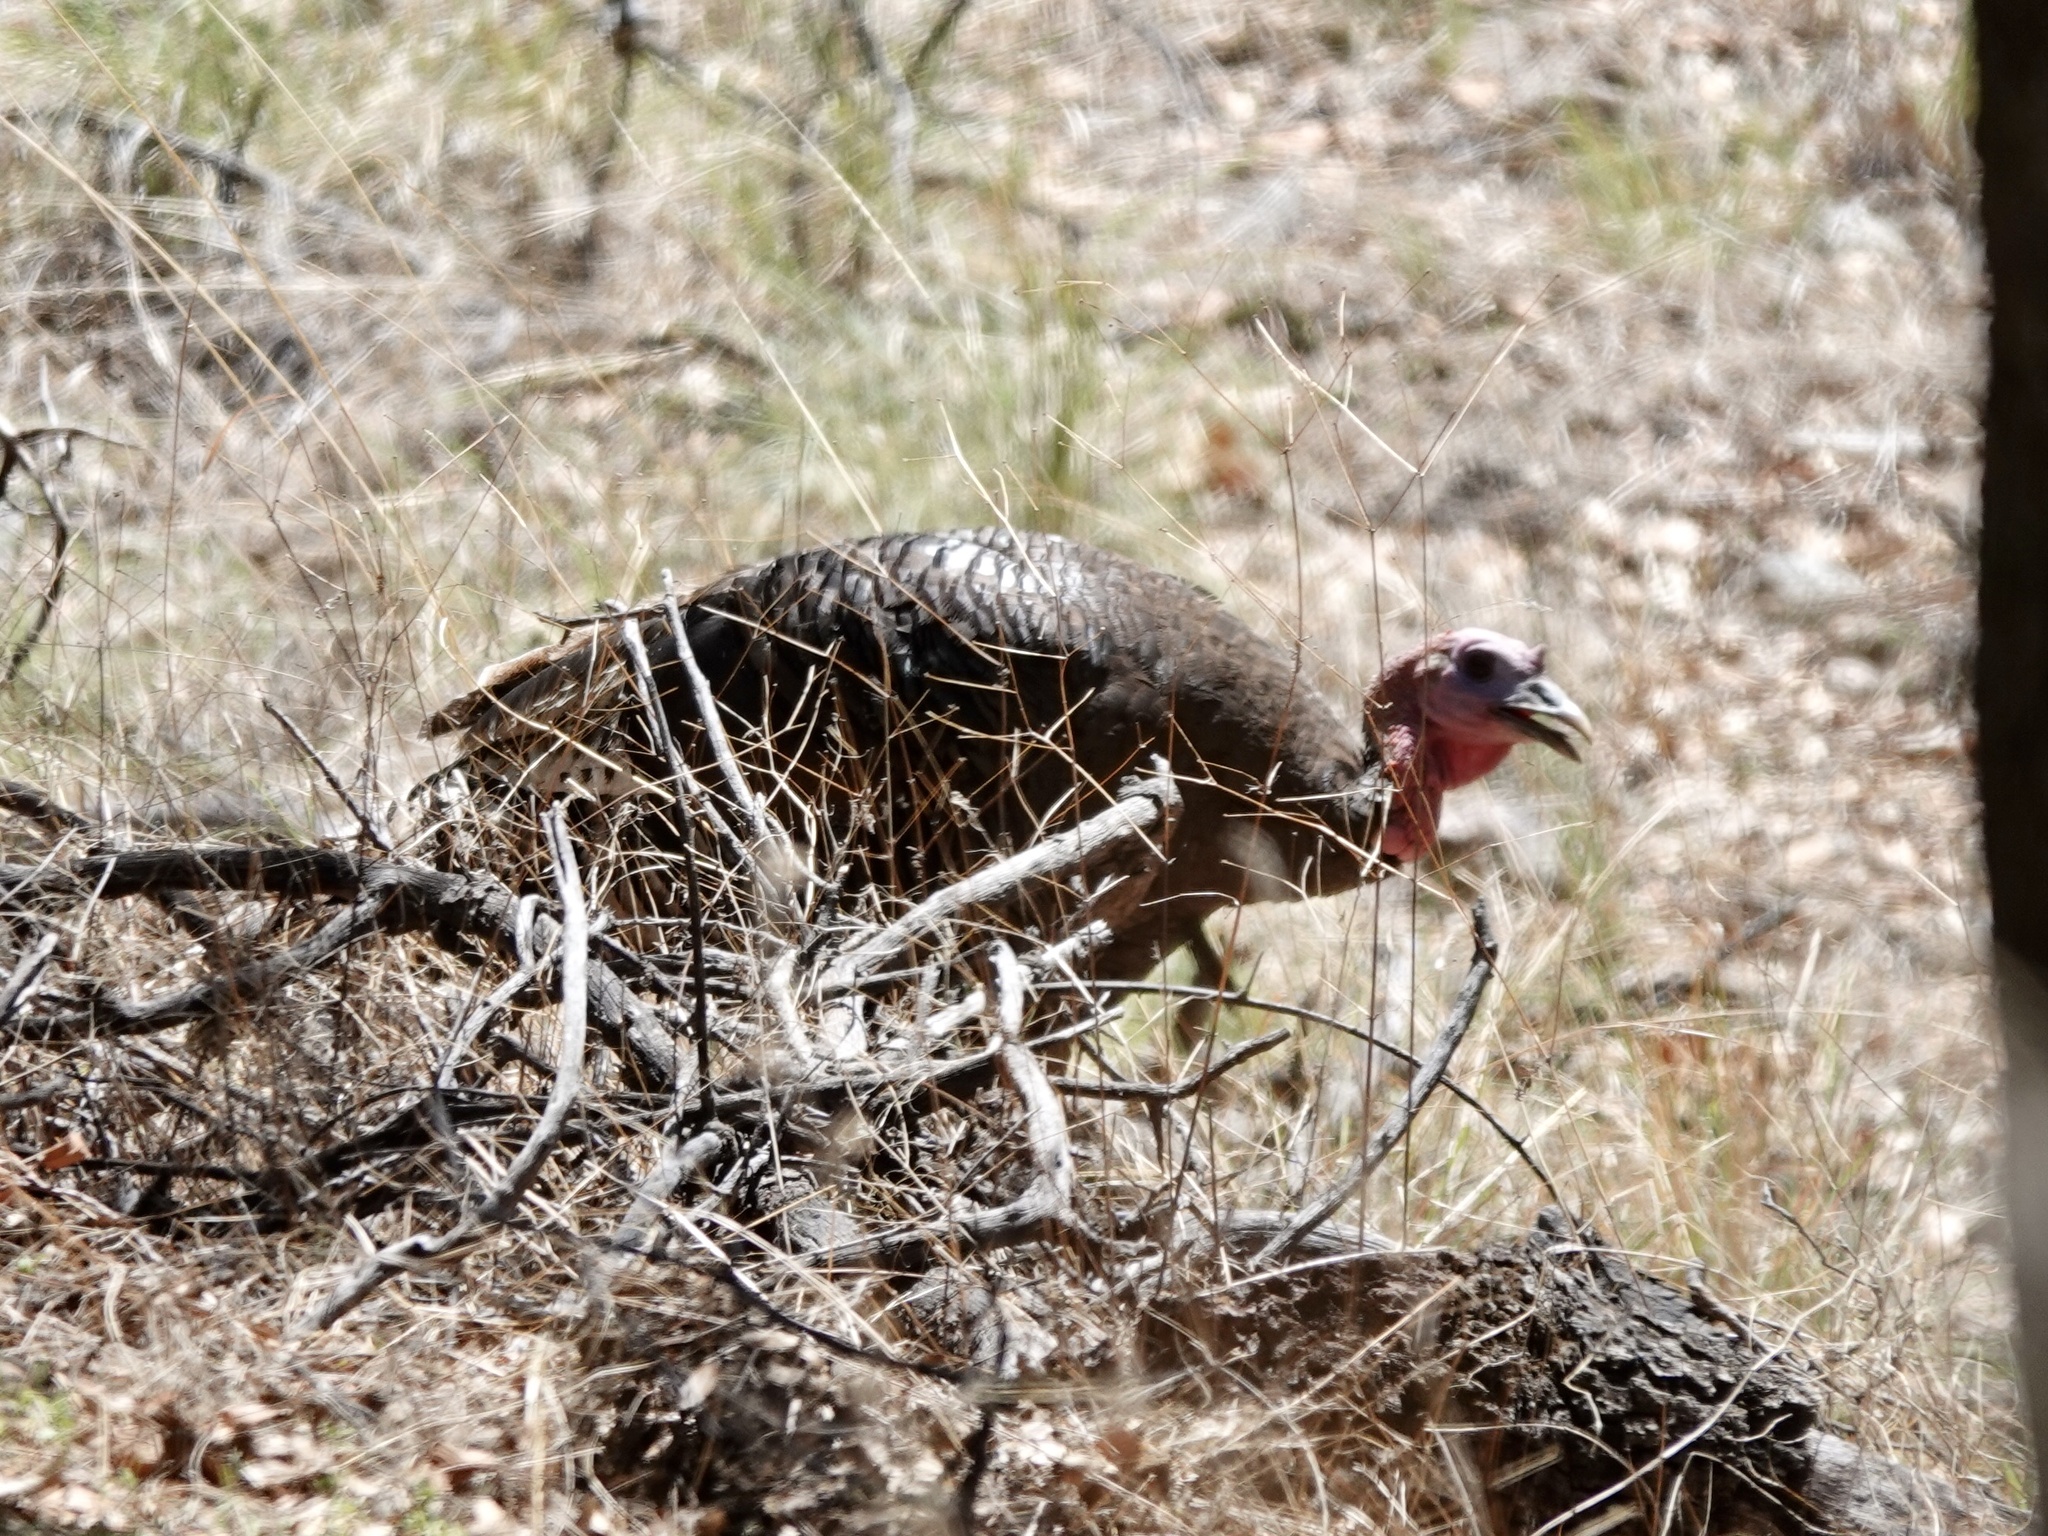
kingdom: Animalia
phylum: Chordata
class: Aves
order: Galliformes
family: Phasianidae
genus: Meleagris
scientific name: Meleagris gallopavo
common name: Wild turkey
